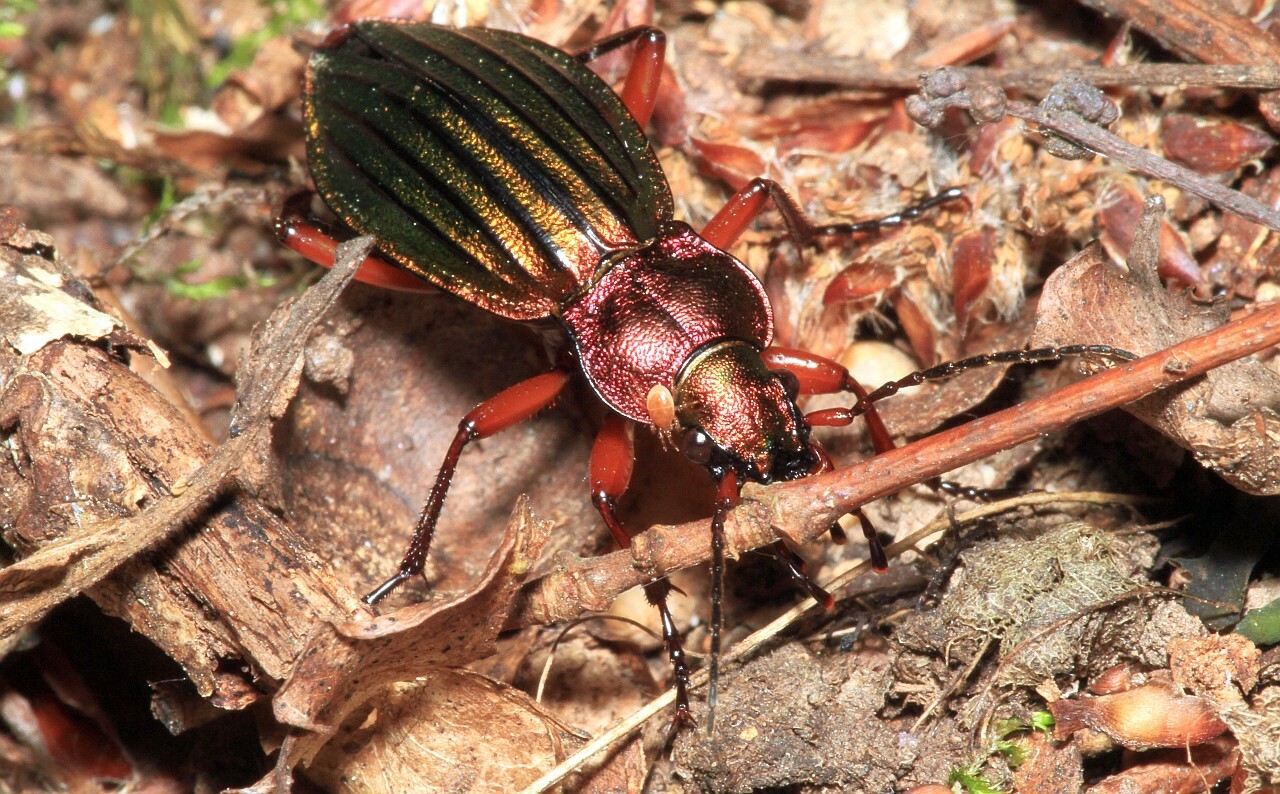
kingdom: Animalia
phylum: Arthropoda
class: Insecta
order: Coleoptera
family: Carabidae
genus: Carabus
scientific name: Carabus auronitens
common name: Carabus auronitens
